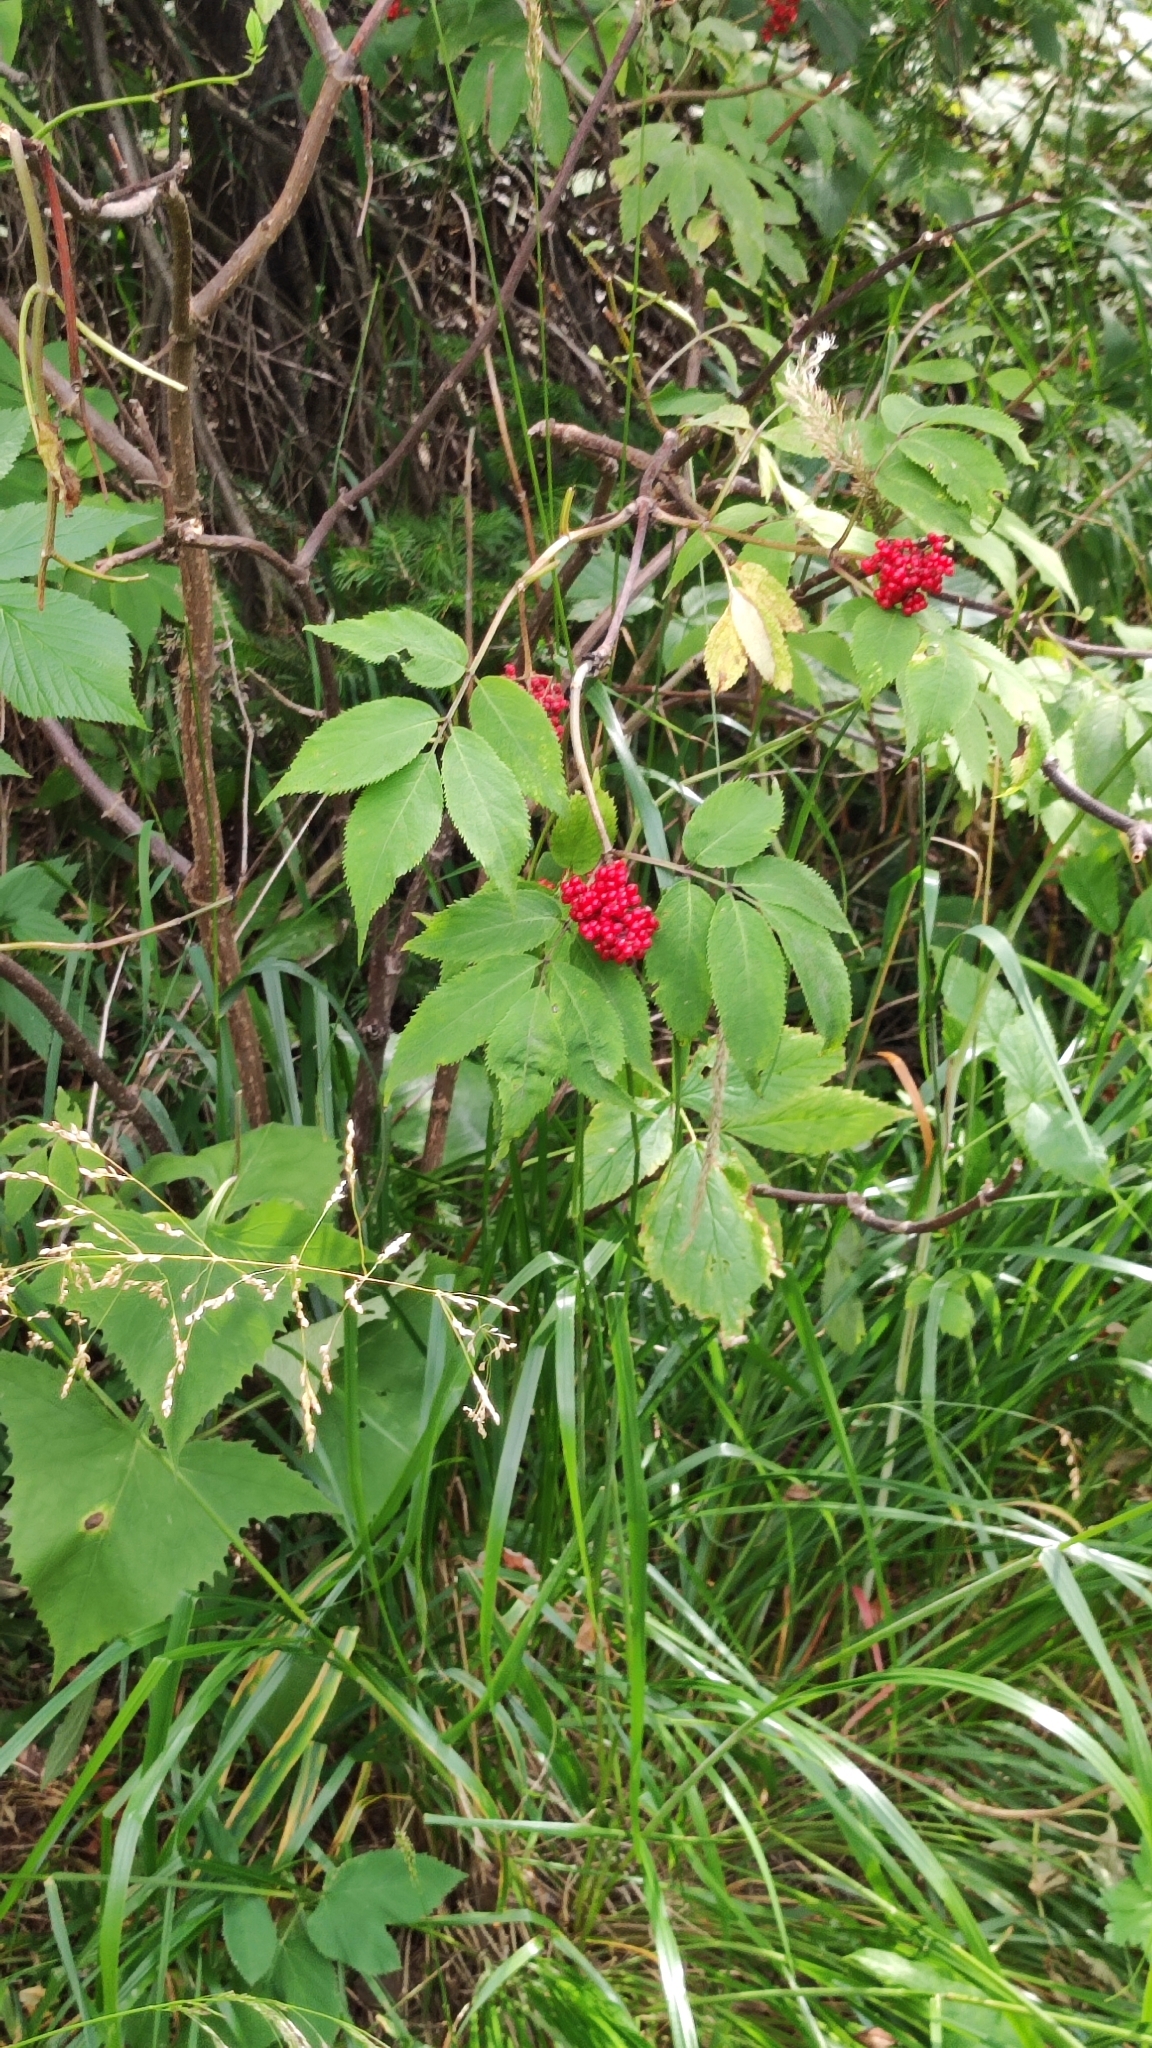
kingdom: Plantae
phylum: Tracheophyta
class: Magnoliopsida
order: Dipsacales
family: Viburnaceae
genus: Sambucus
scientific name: Sambucus sibirica
